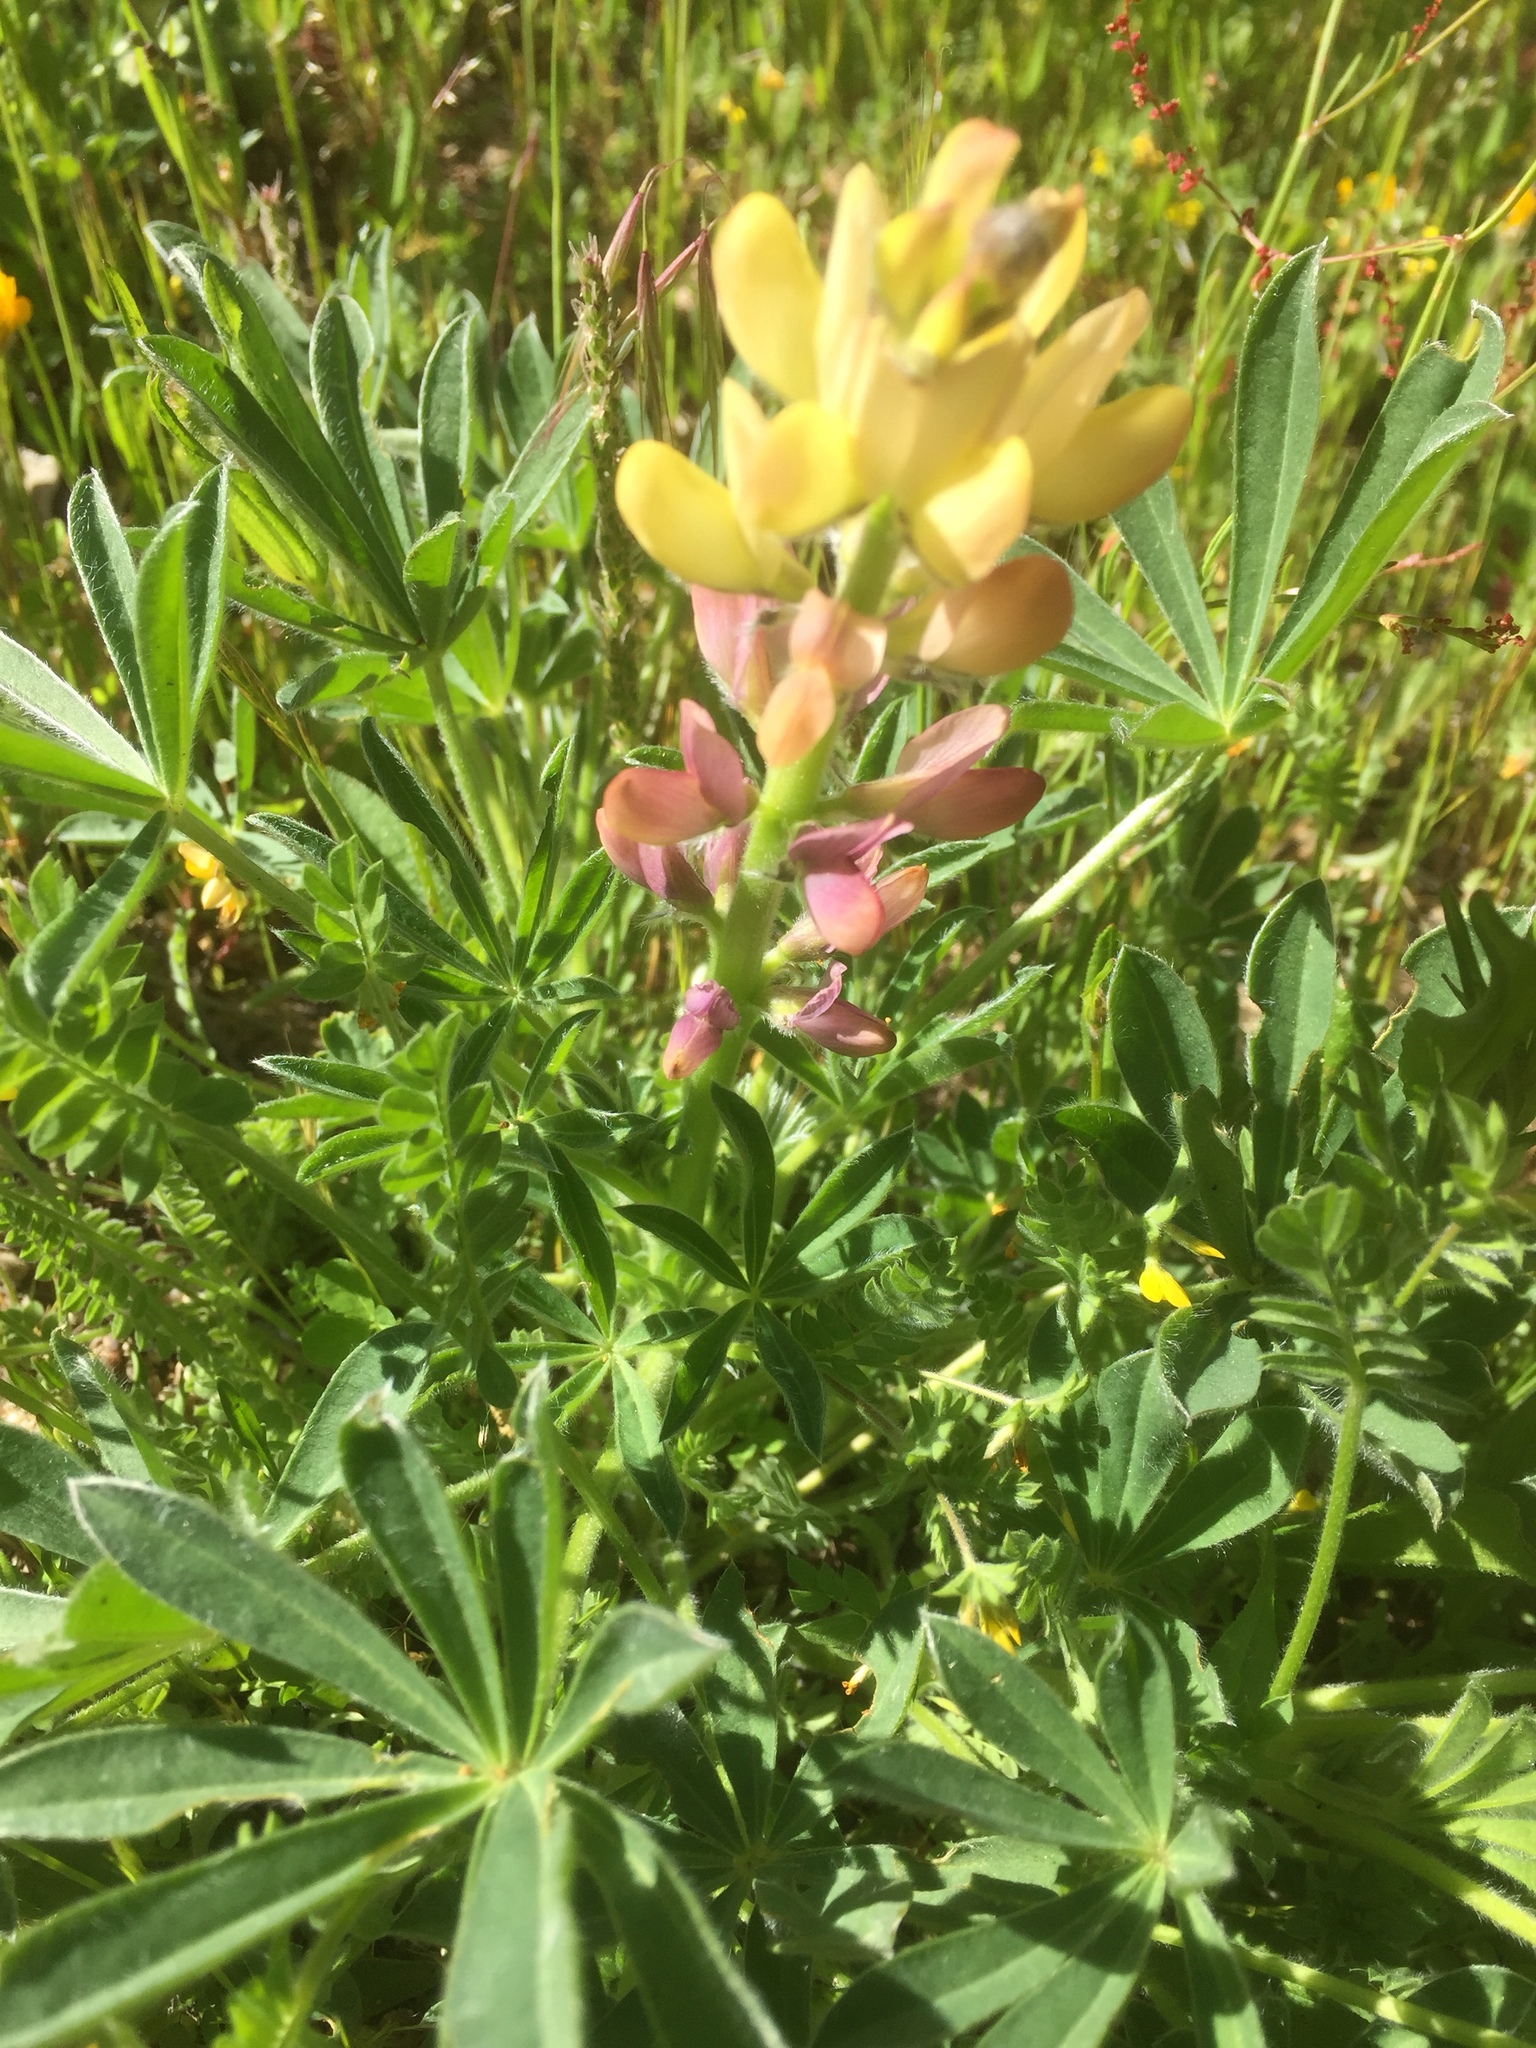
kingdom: Plantae
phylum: Tracheophyta
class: Magnoliopsida
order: Fabales
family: Fabaceae
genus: Lupinus
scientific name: Lupinus gredensis
